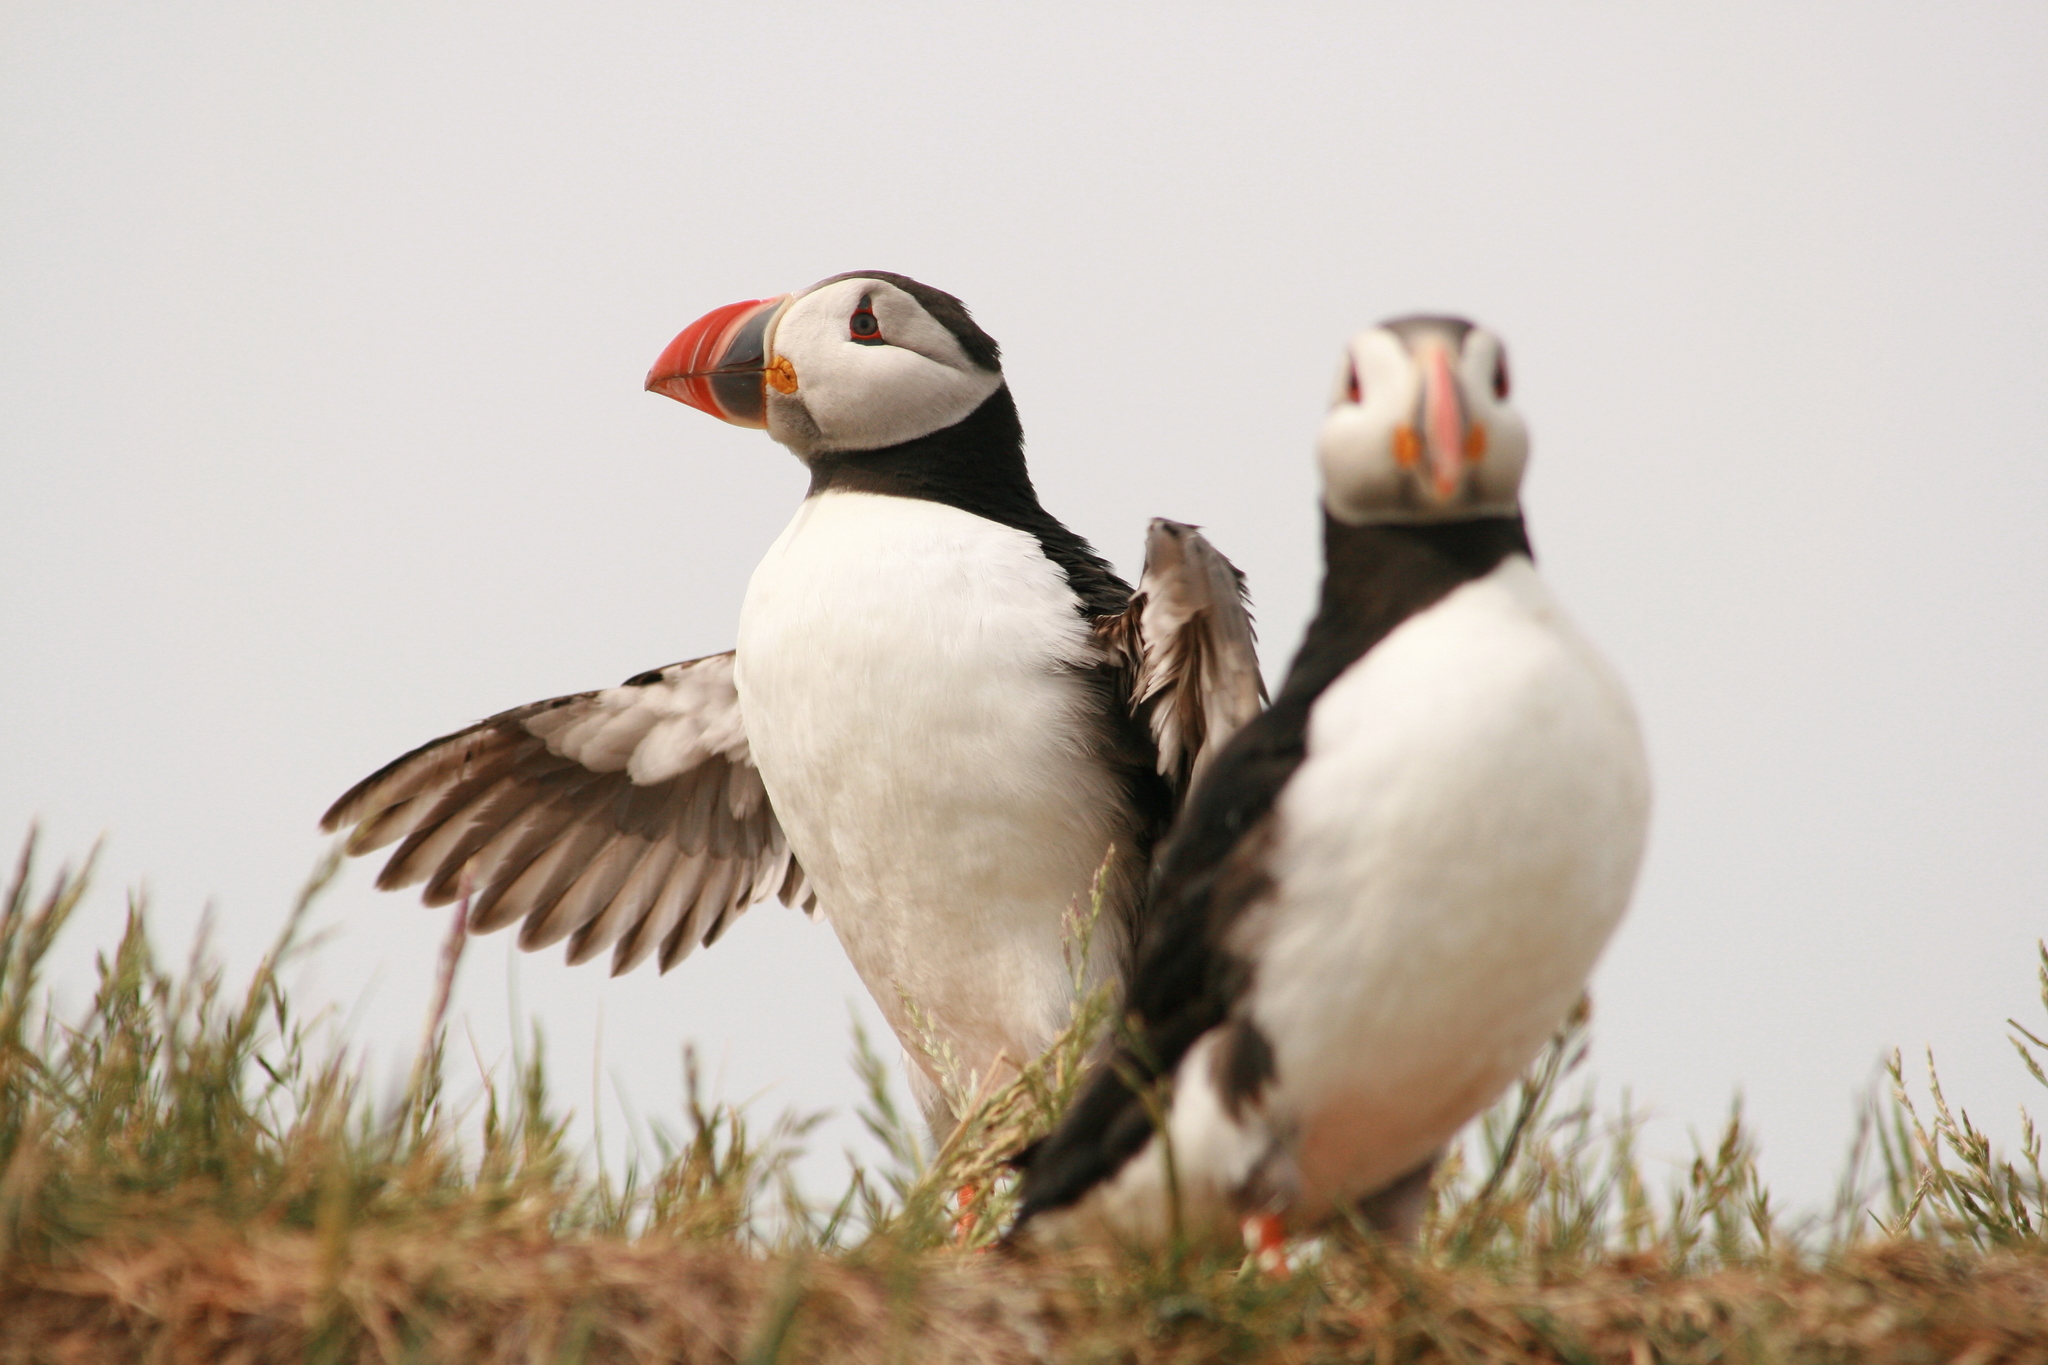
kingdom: Animalia
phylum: Chordata
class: Aves
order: Charadriiformes
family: Alcidae
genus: Fratercula
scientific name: Fratercula arctica
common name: Atlantic puffin
